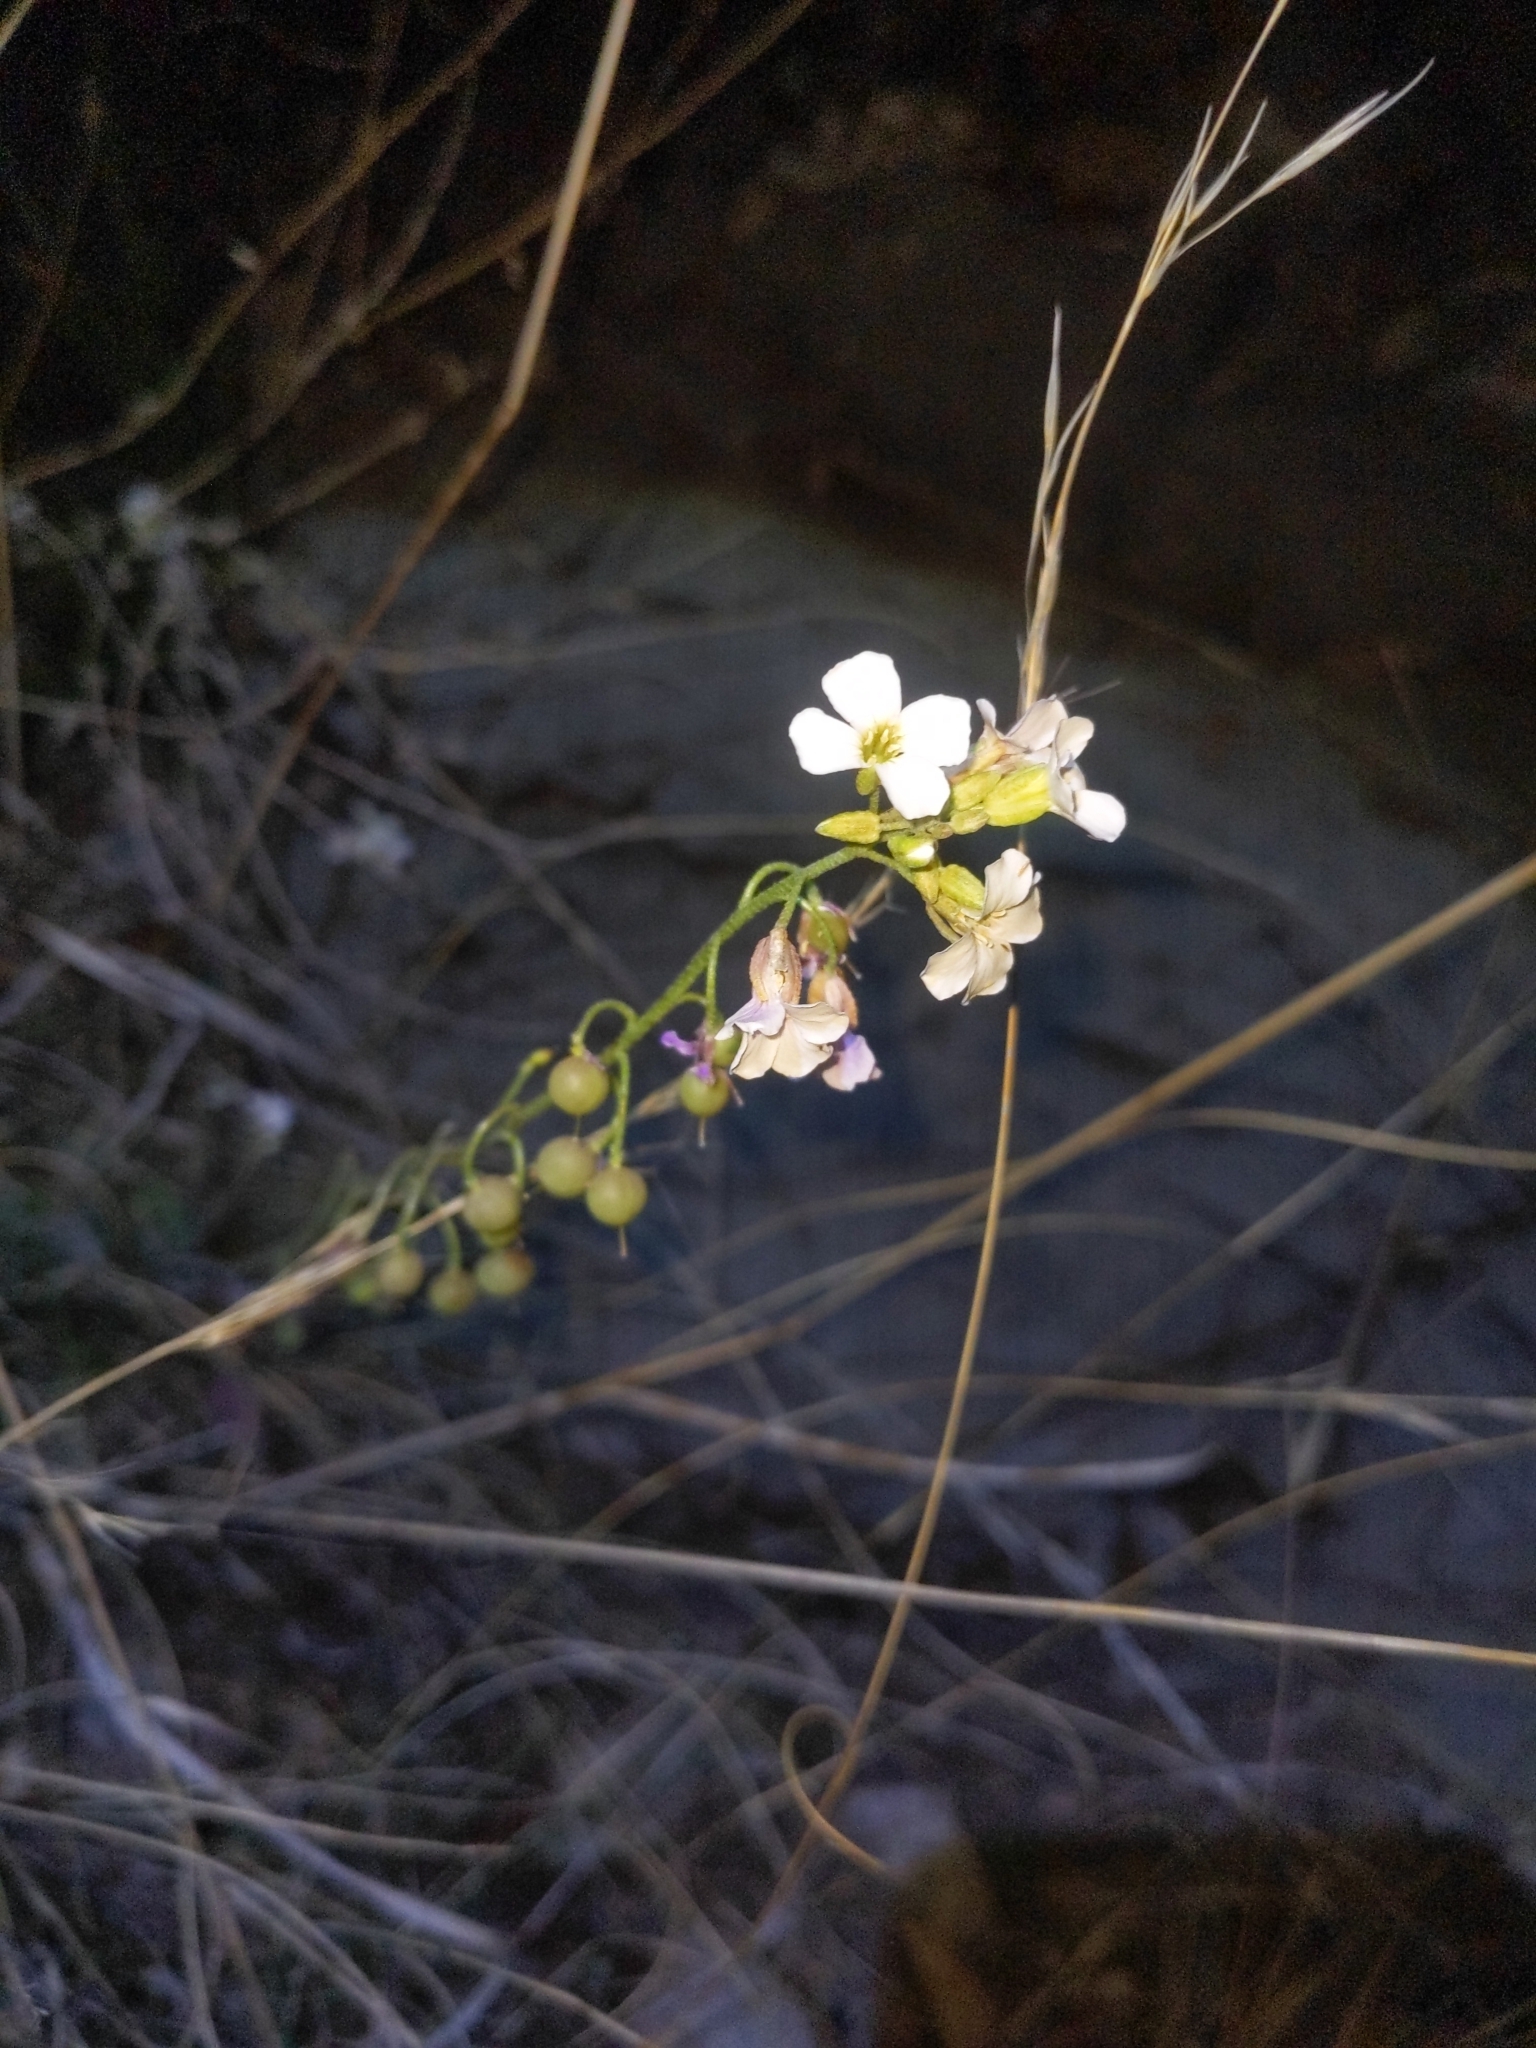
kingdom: Plantae
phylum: Tracheophyta
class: Magnoliopsida
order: Brassicales
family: Brassicaceae
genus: Physaria
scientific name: Physaria purpurea
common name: Rose bladderpod
